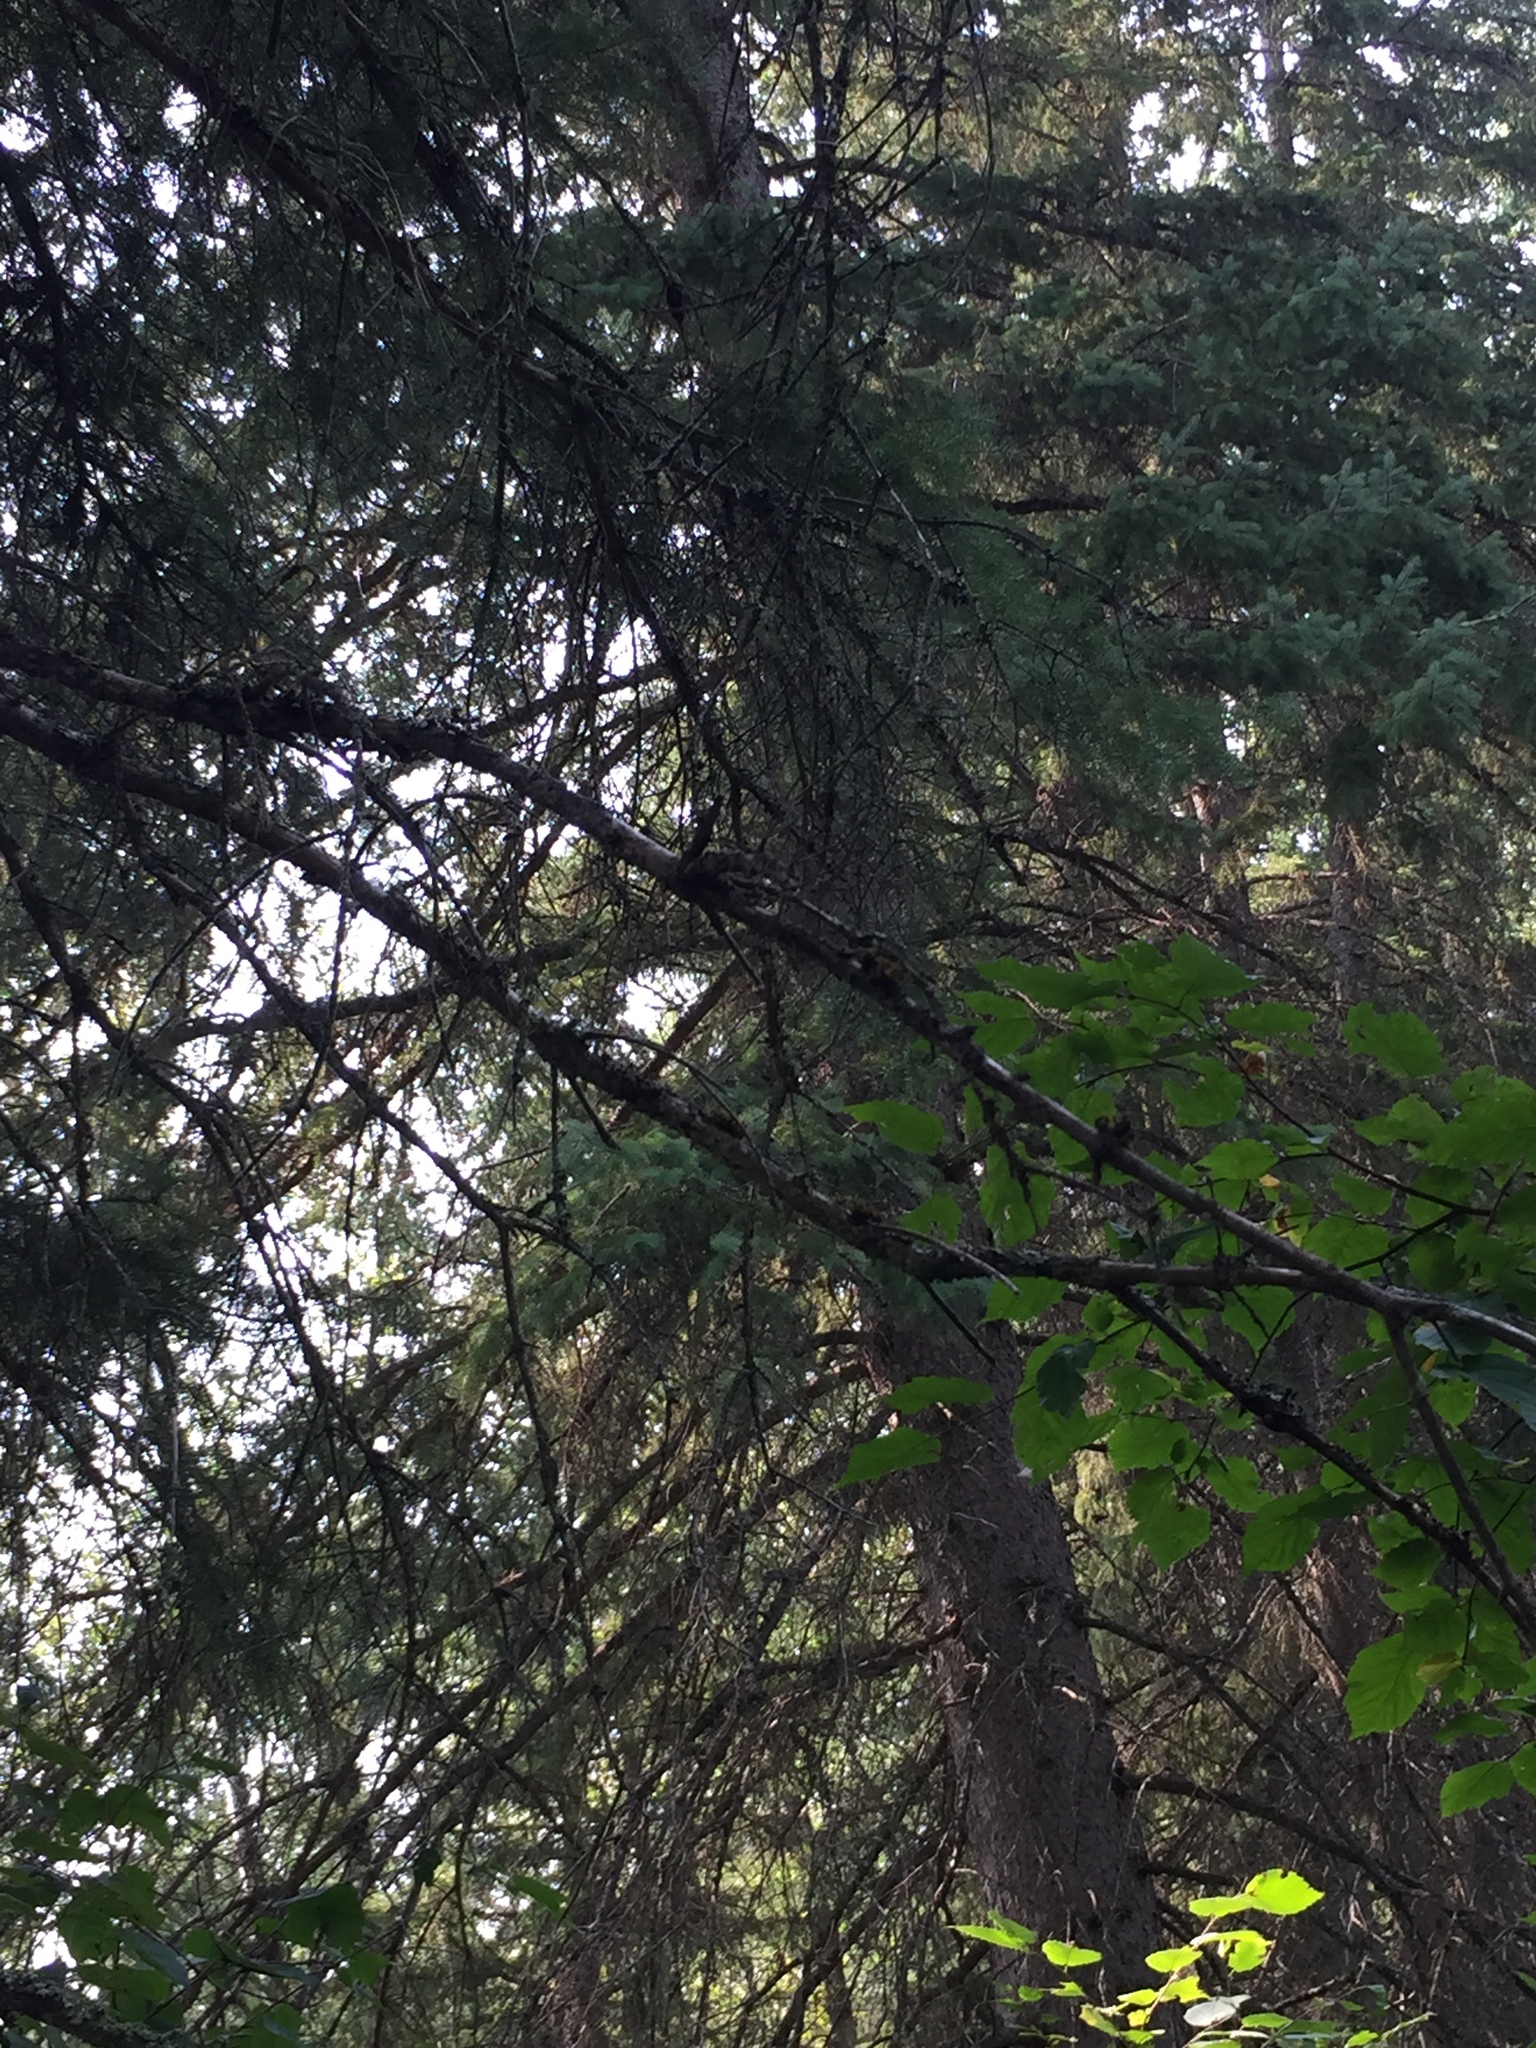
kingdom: Plantae
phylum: Tracheophyta
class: Pinopsida
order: Pinales
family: Pinaceae
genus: Picea
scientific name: Picea mariana
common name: Black spruce
